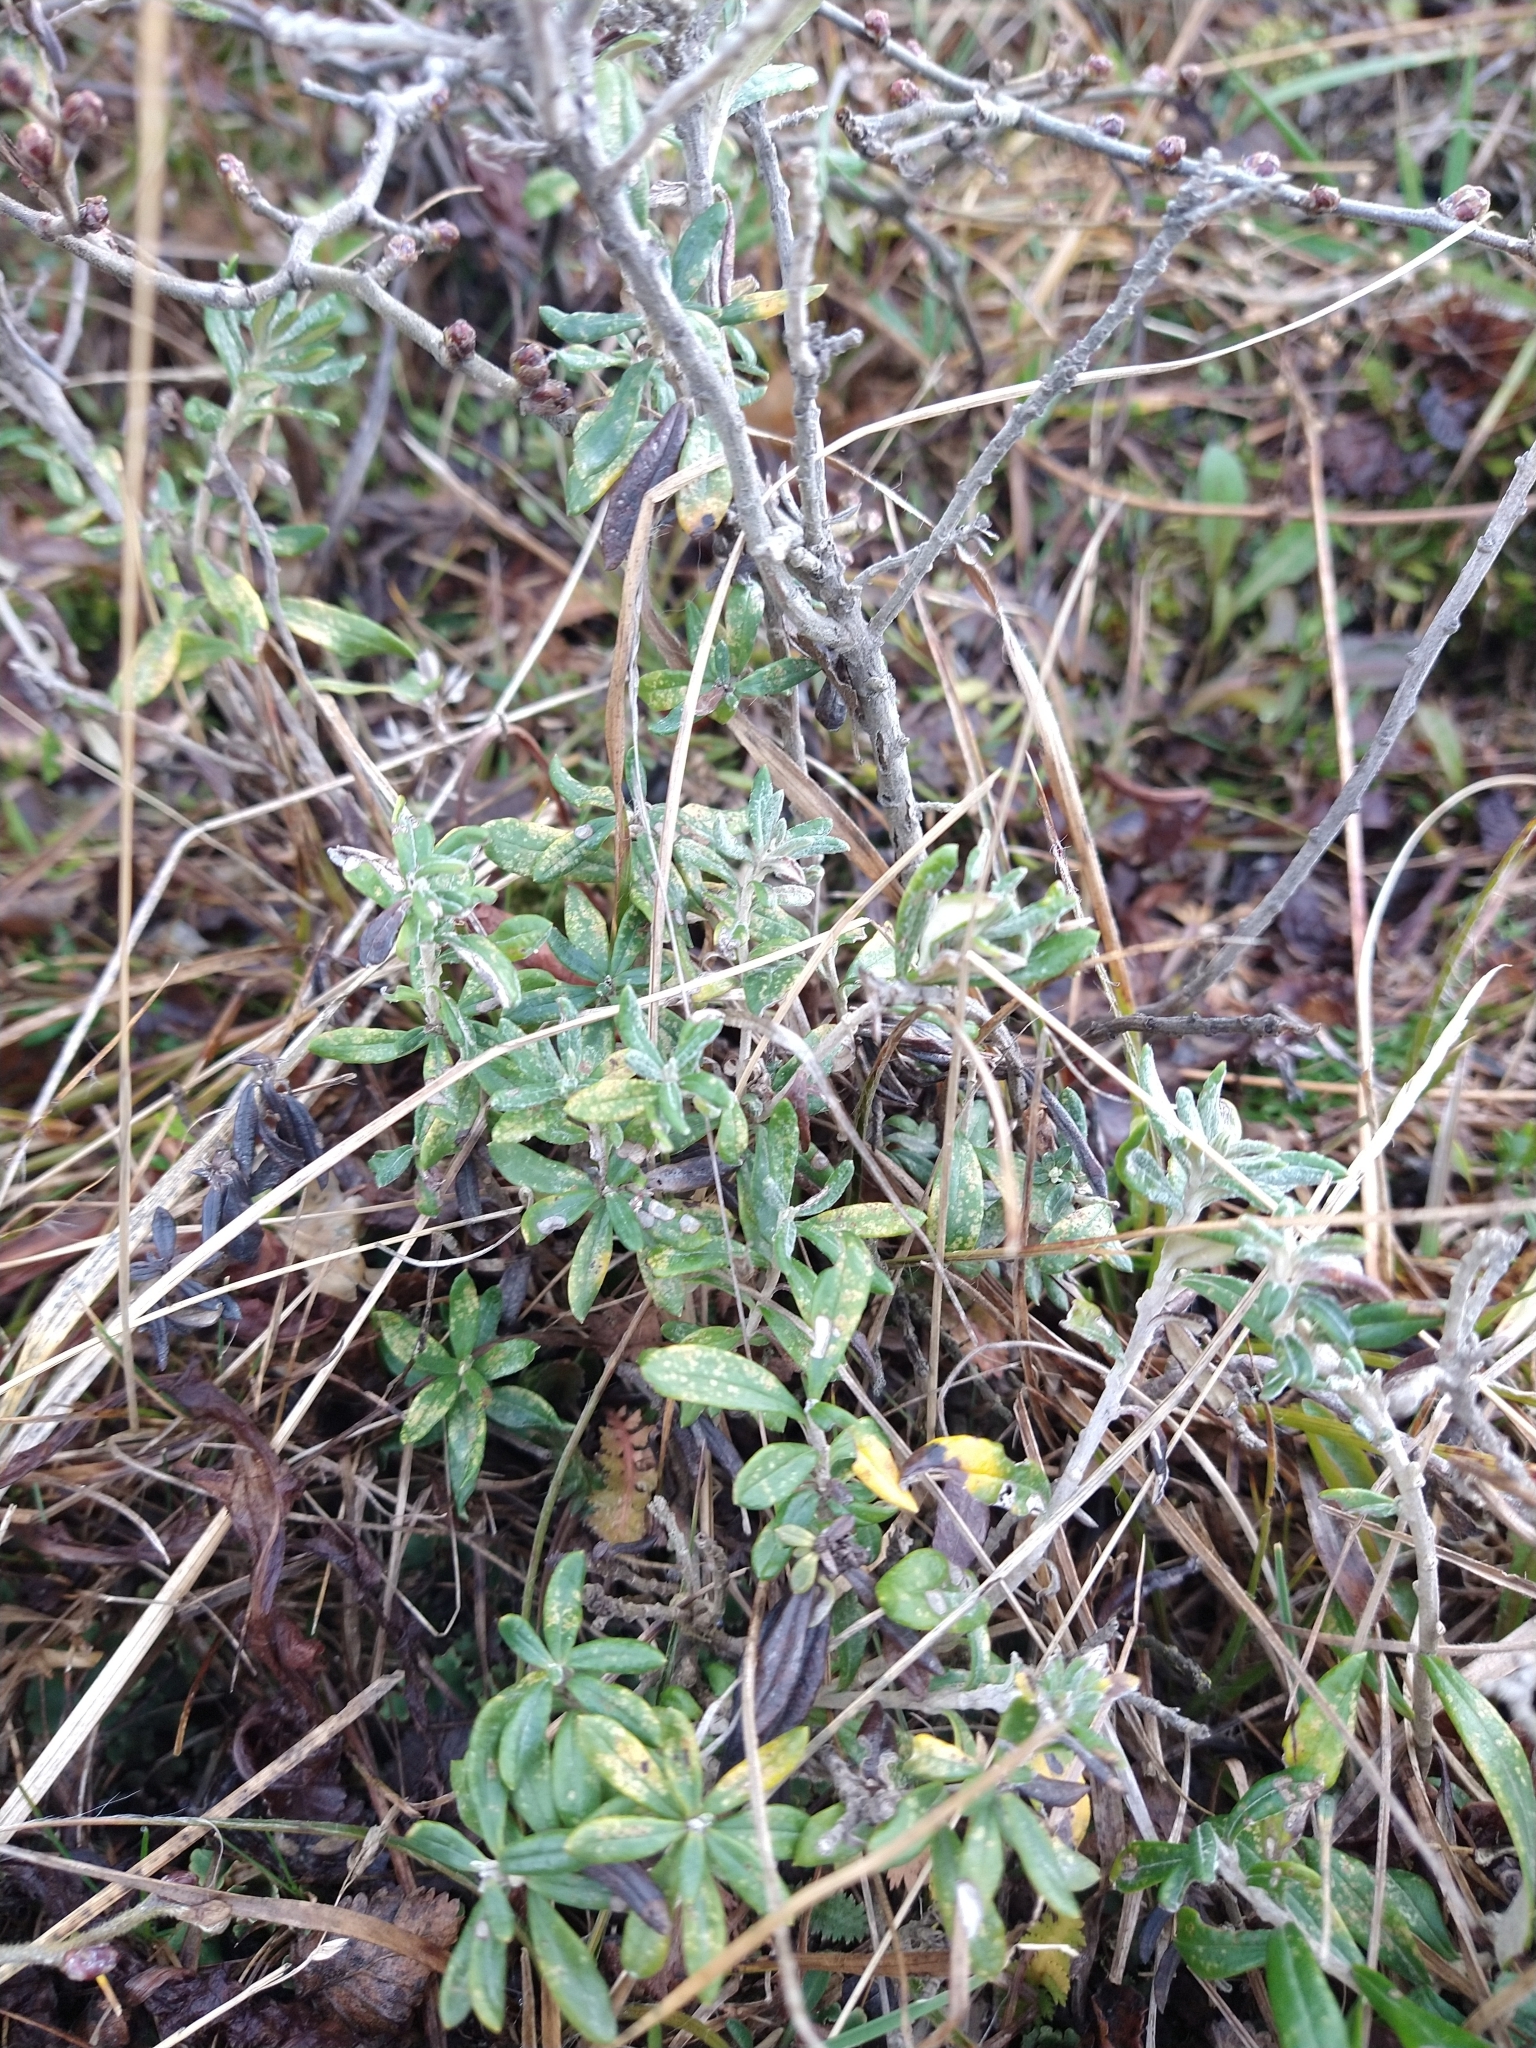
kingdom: Plantae
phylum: Tracheophyta
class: Magnoliopsida
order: Asterales
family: Asteraceae
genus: Chiliotrichum
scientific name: Chiliotrichum diffusum
